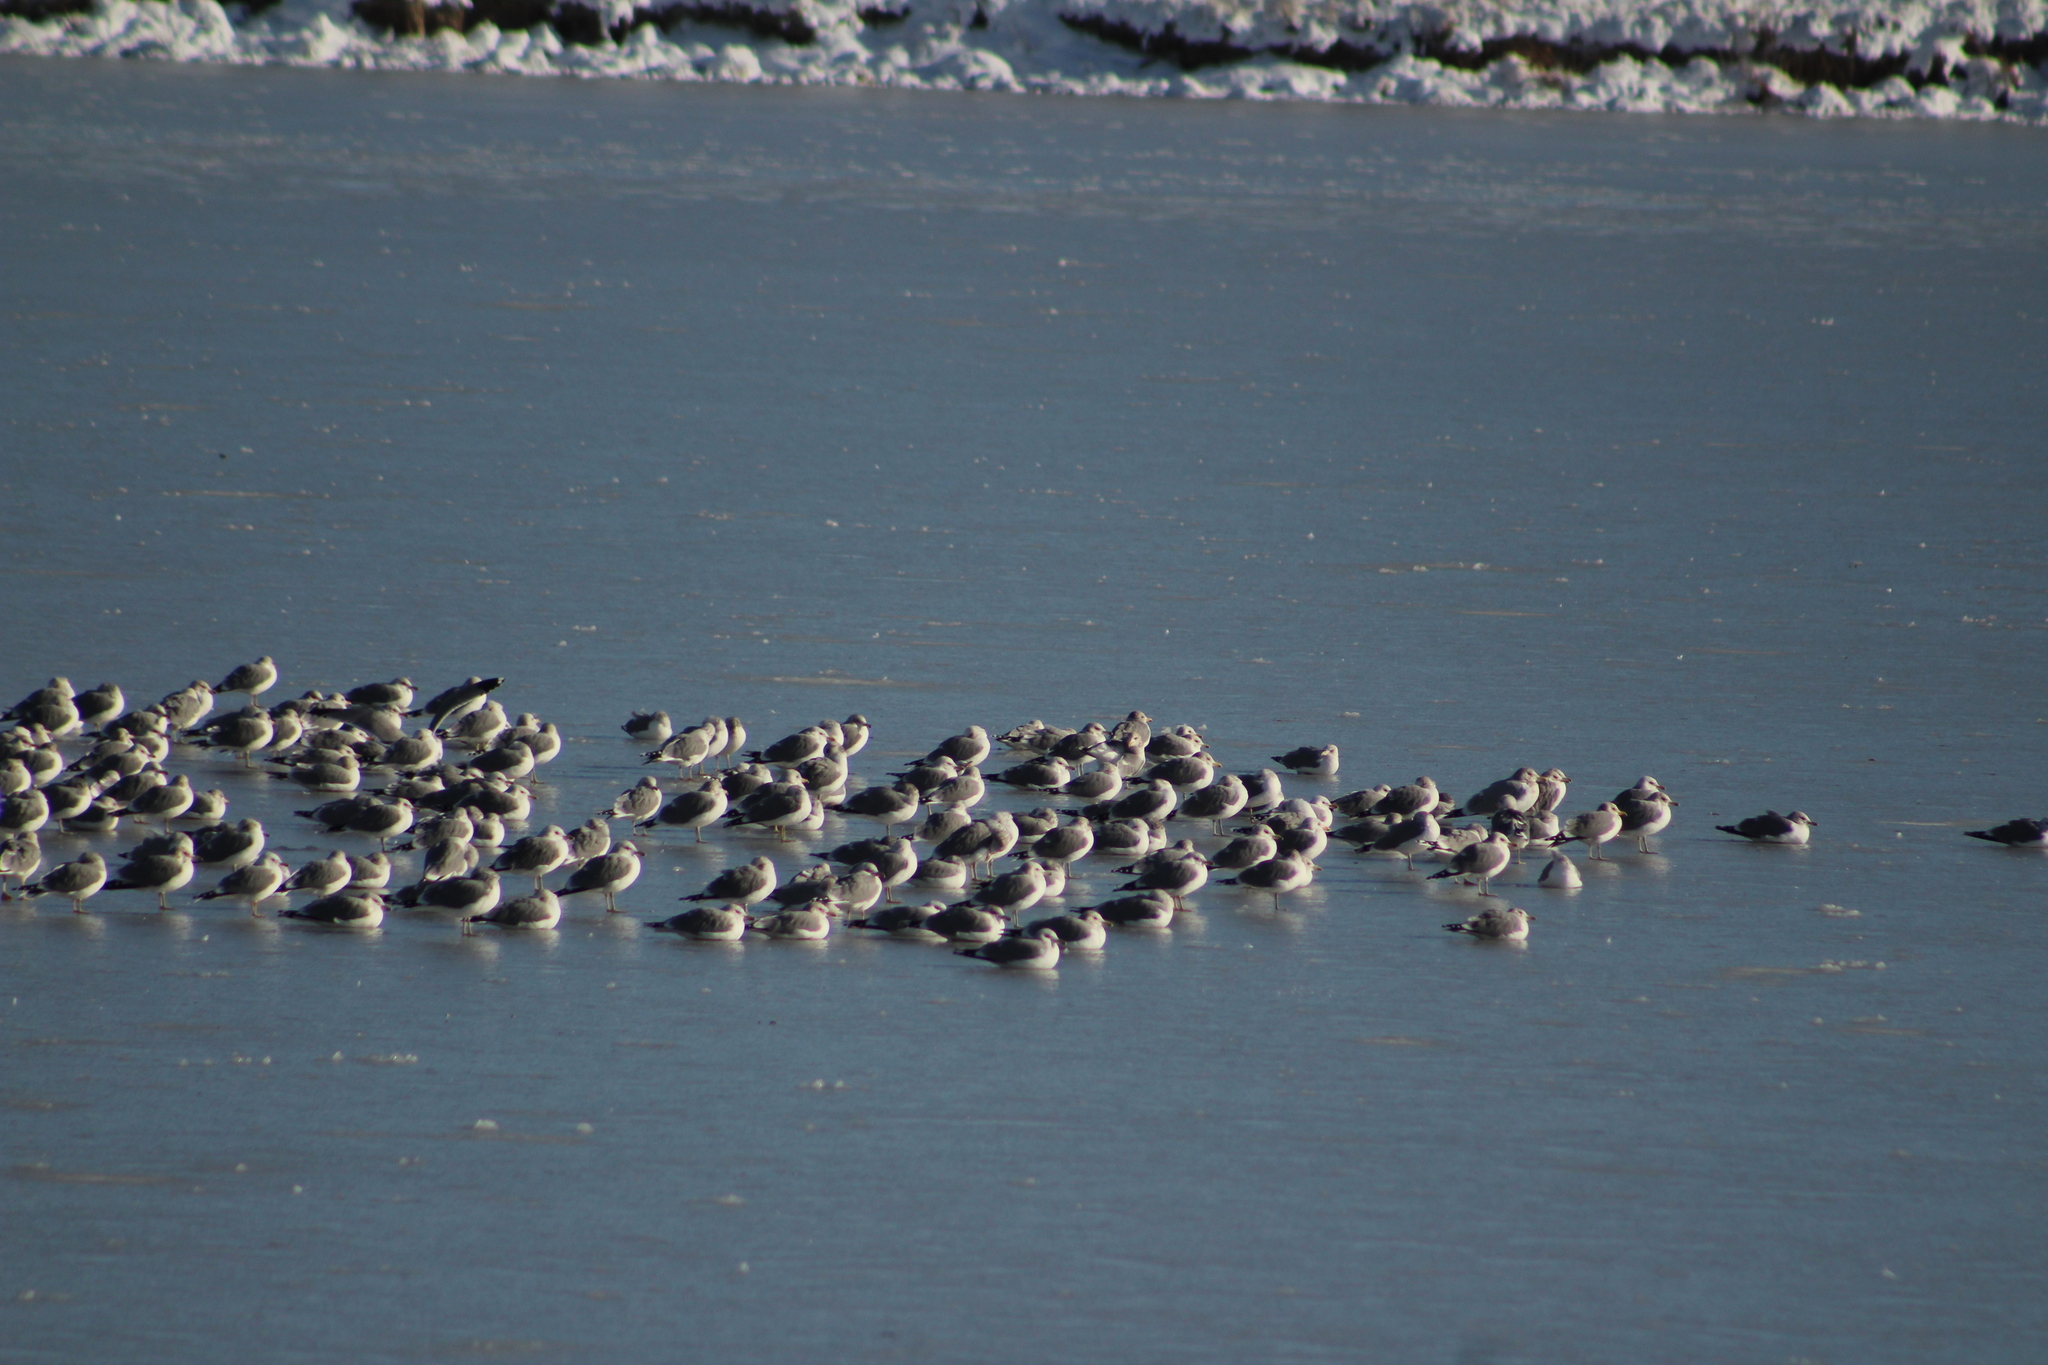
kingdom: Animalia
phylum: Chordata
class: Aves
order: Charadriiformes
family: Laridae
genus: Larus
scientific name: Larus californicus
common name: California gull
